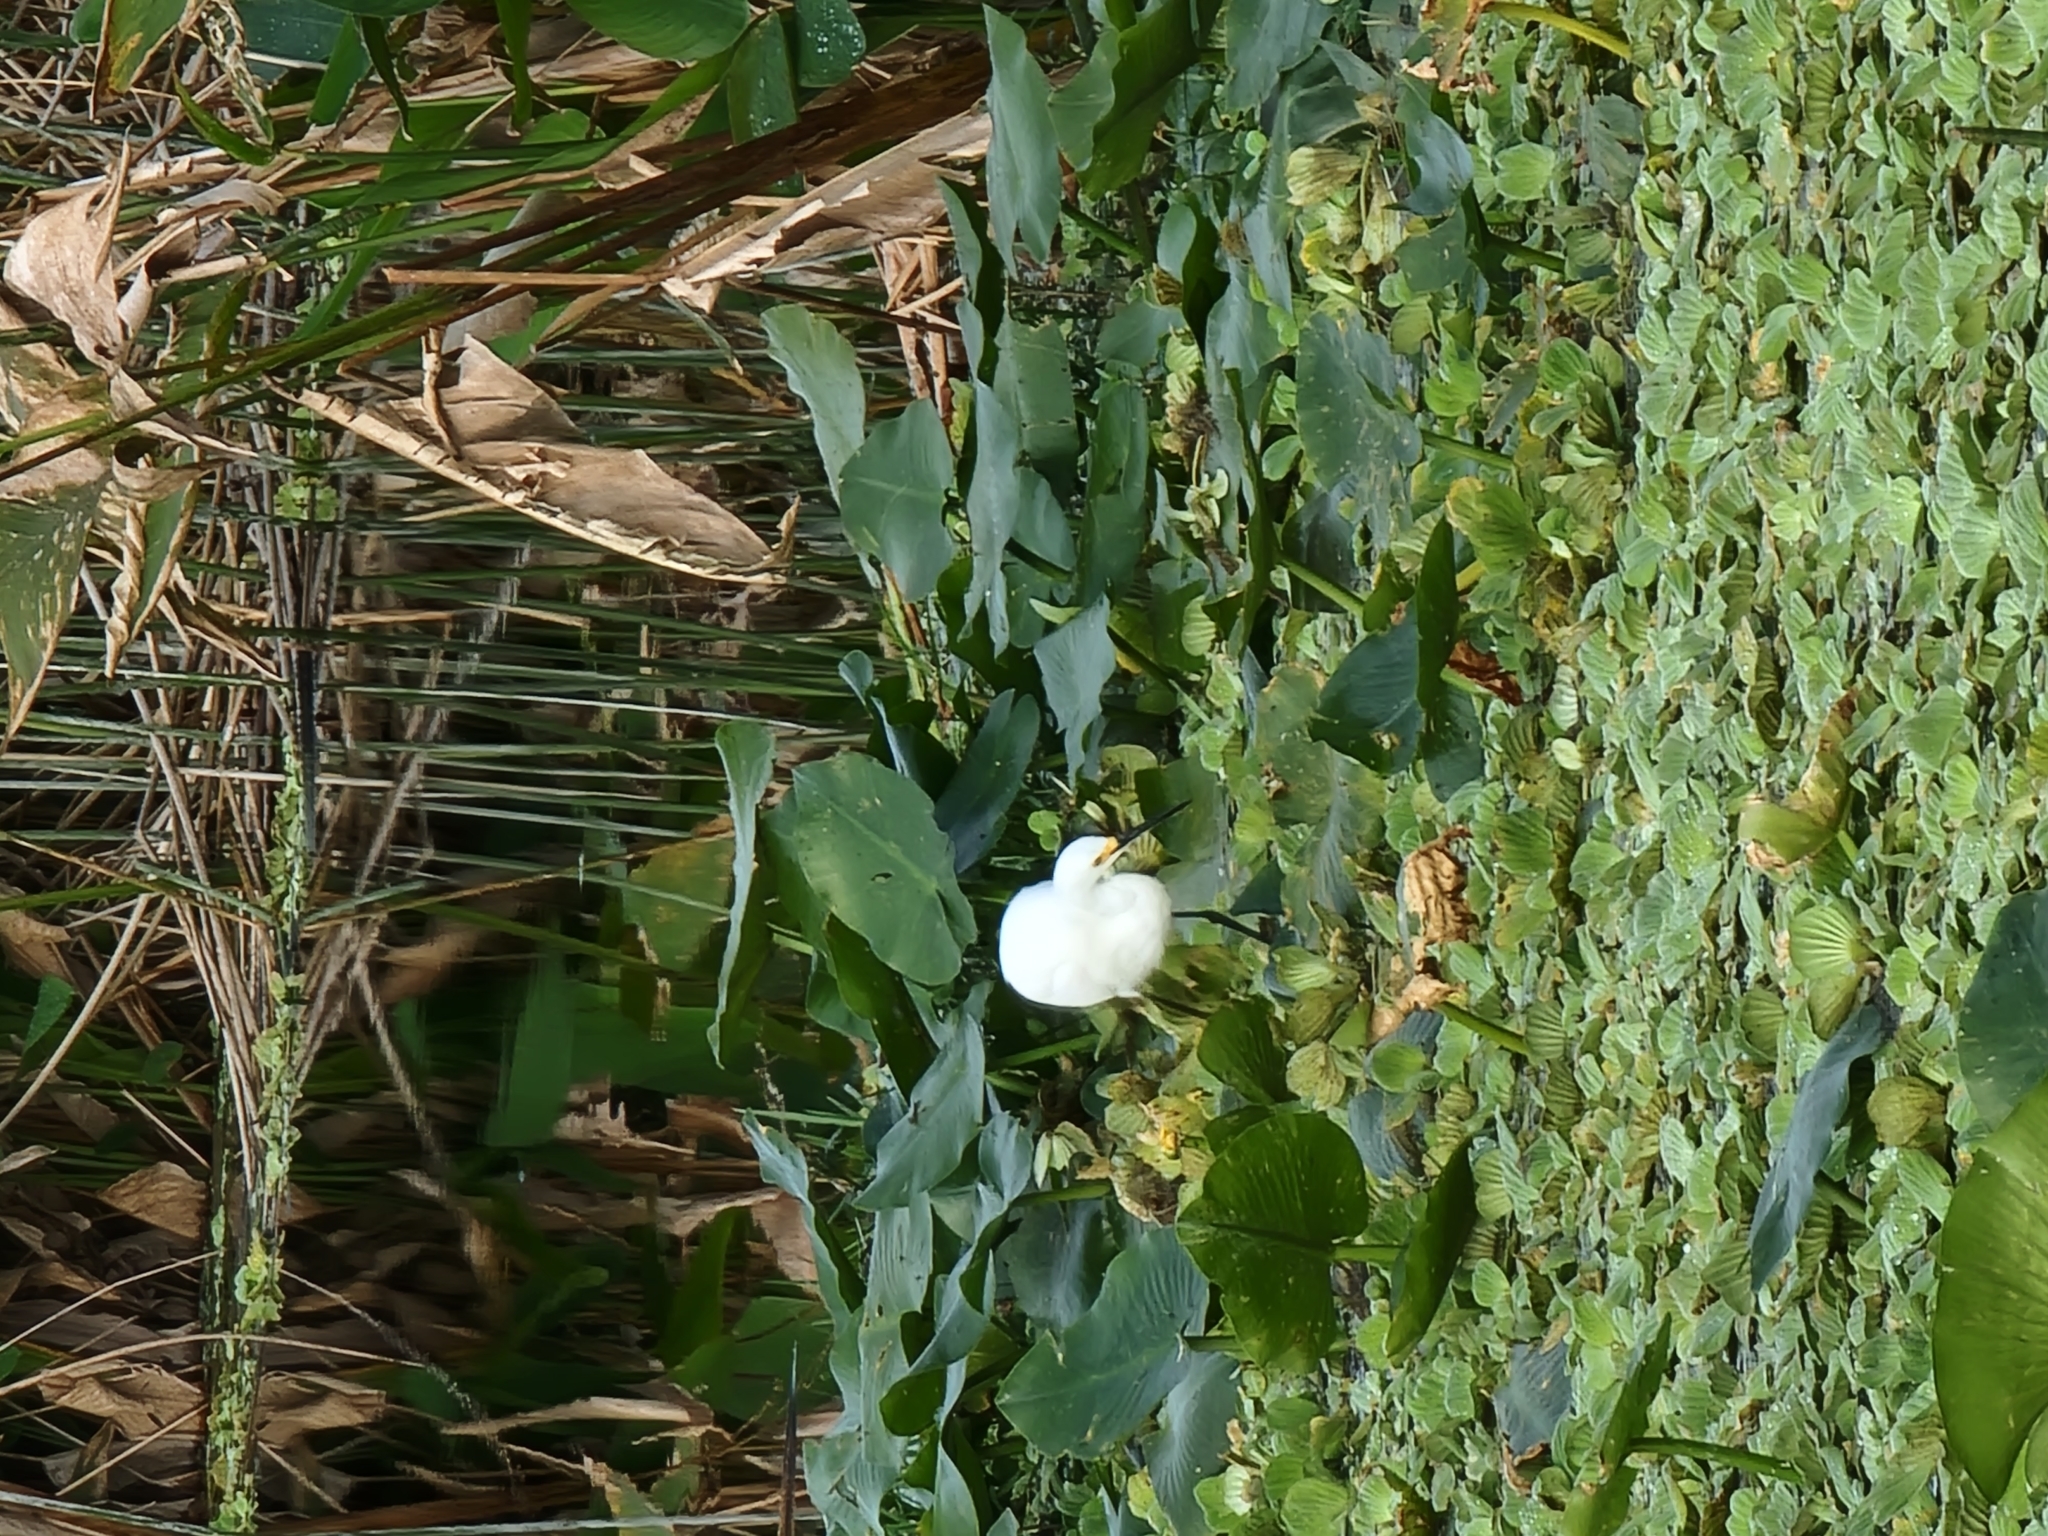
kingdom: Animalia
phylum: Chordata
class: Aves
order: Pelecaniformes
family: Ardeidae
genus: Egretta
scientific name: Egretta thula
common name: Snowy egret
